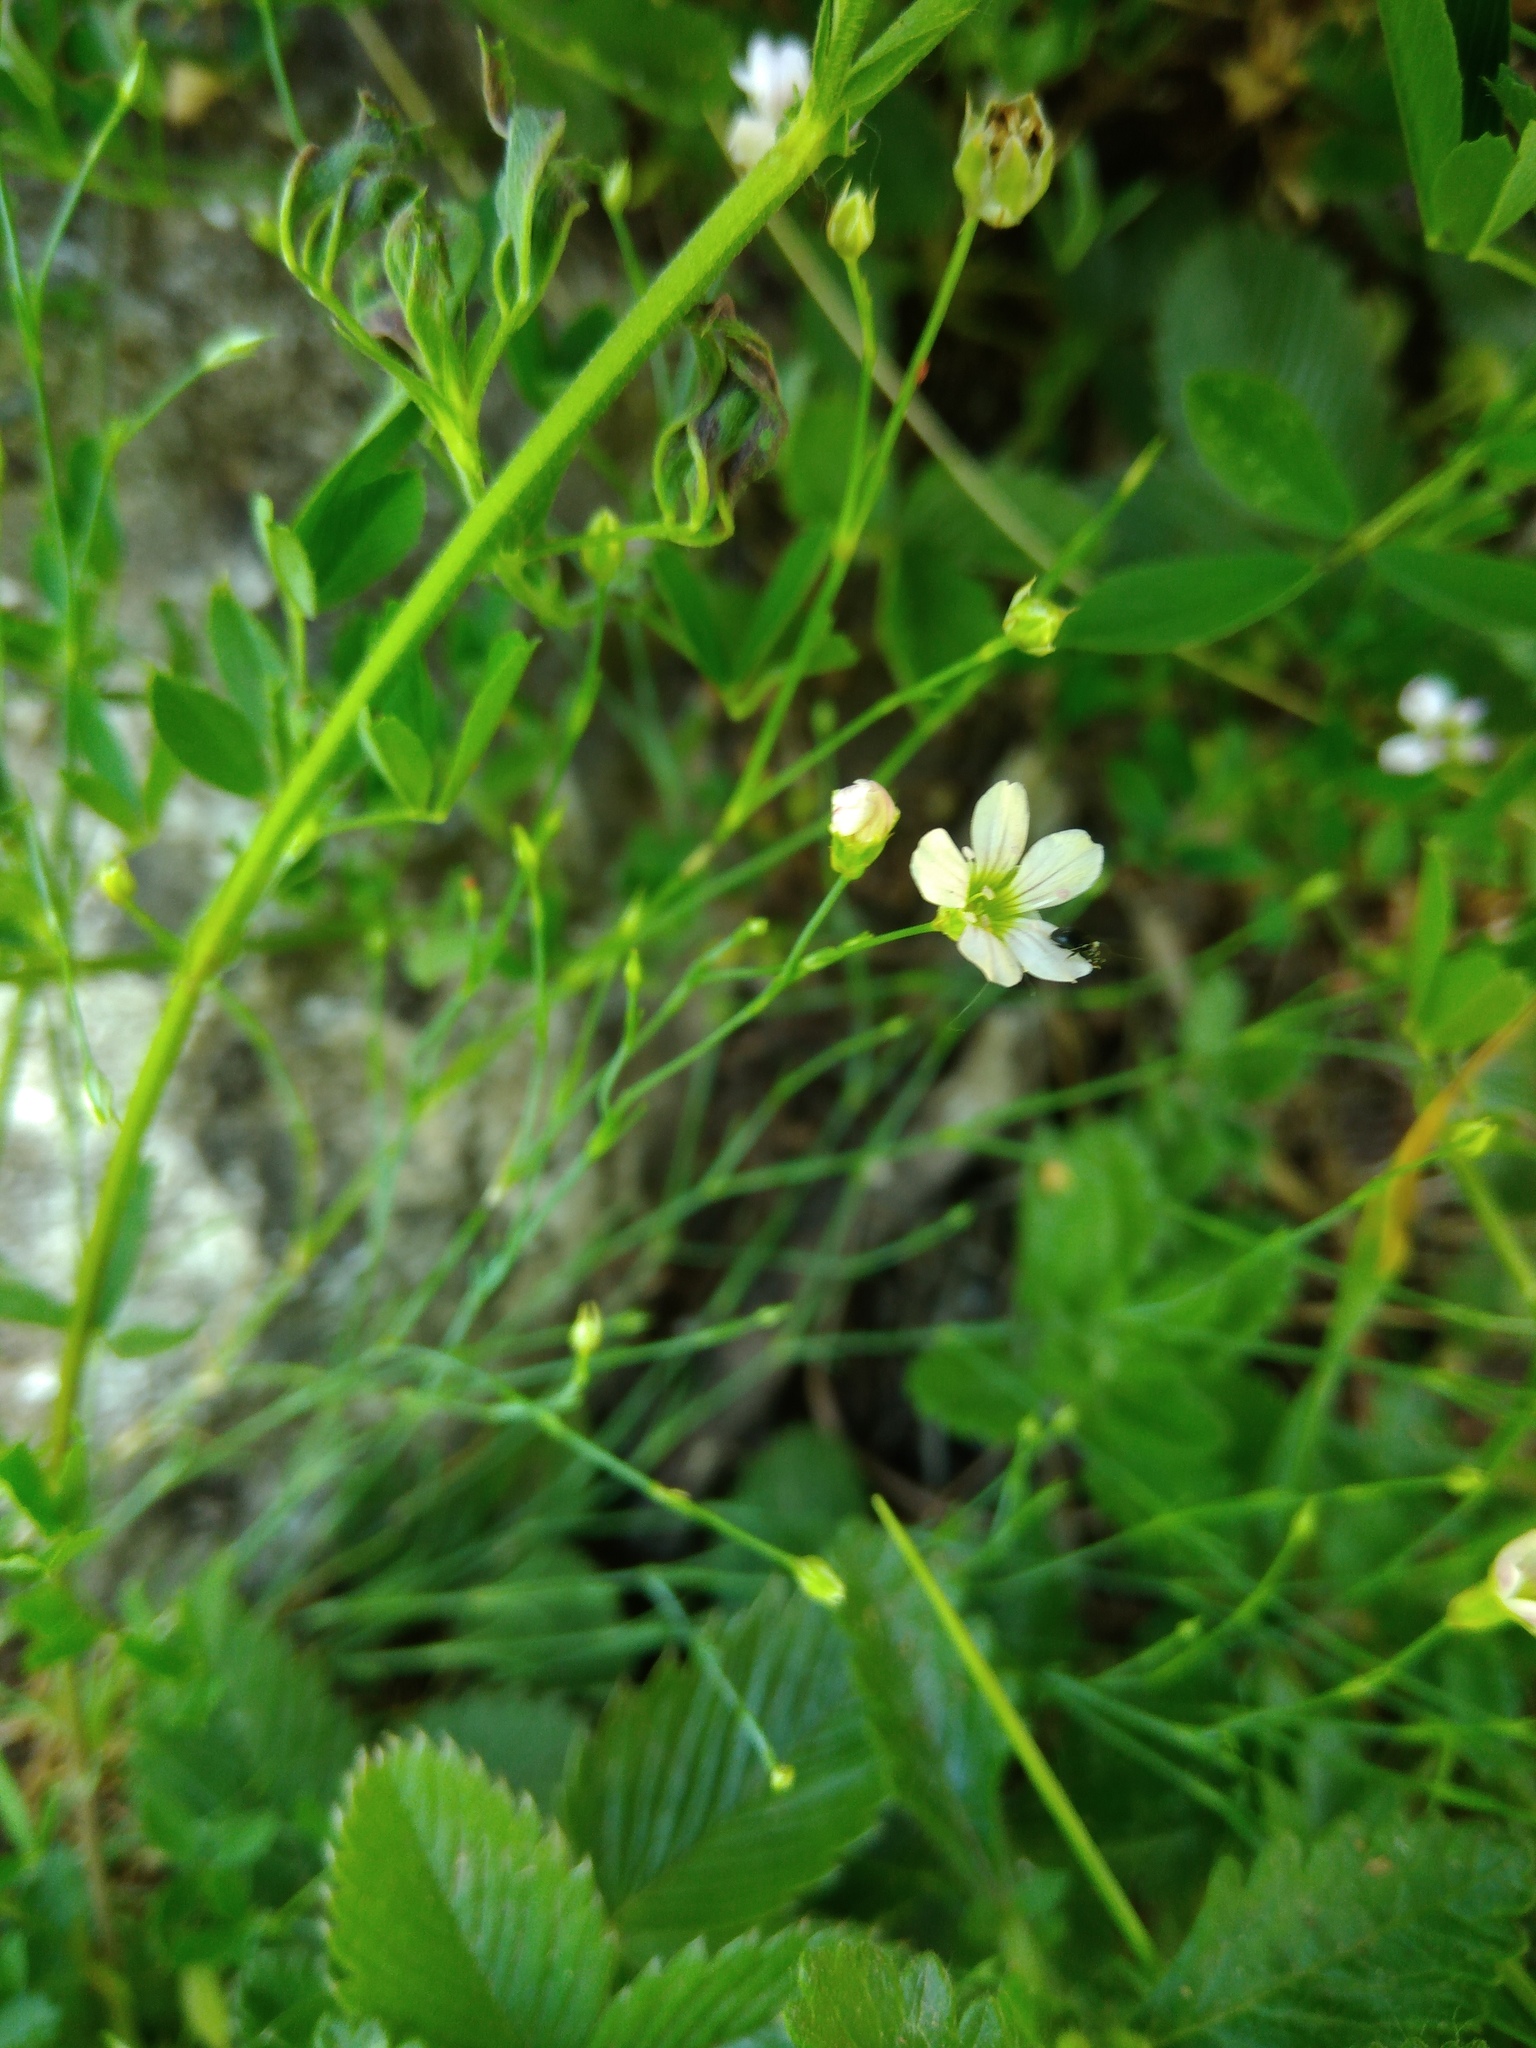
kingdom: Plantae
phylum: Tracheophyta
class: Magnoliopsida
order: Malpighiales
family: Linaceae
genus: Linum
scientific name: Linum catharticum
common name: Fairy flax
